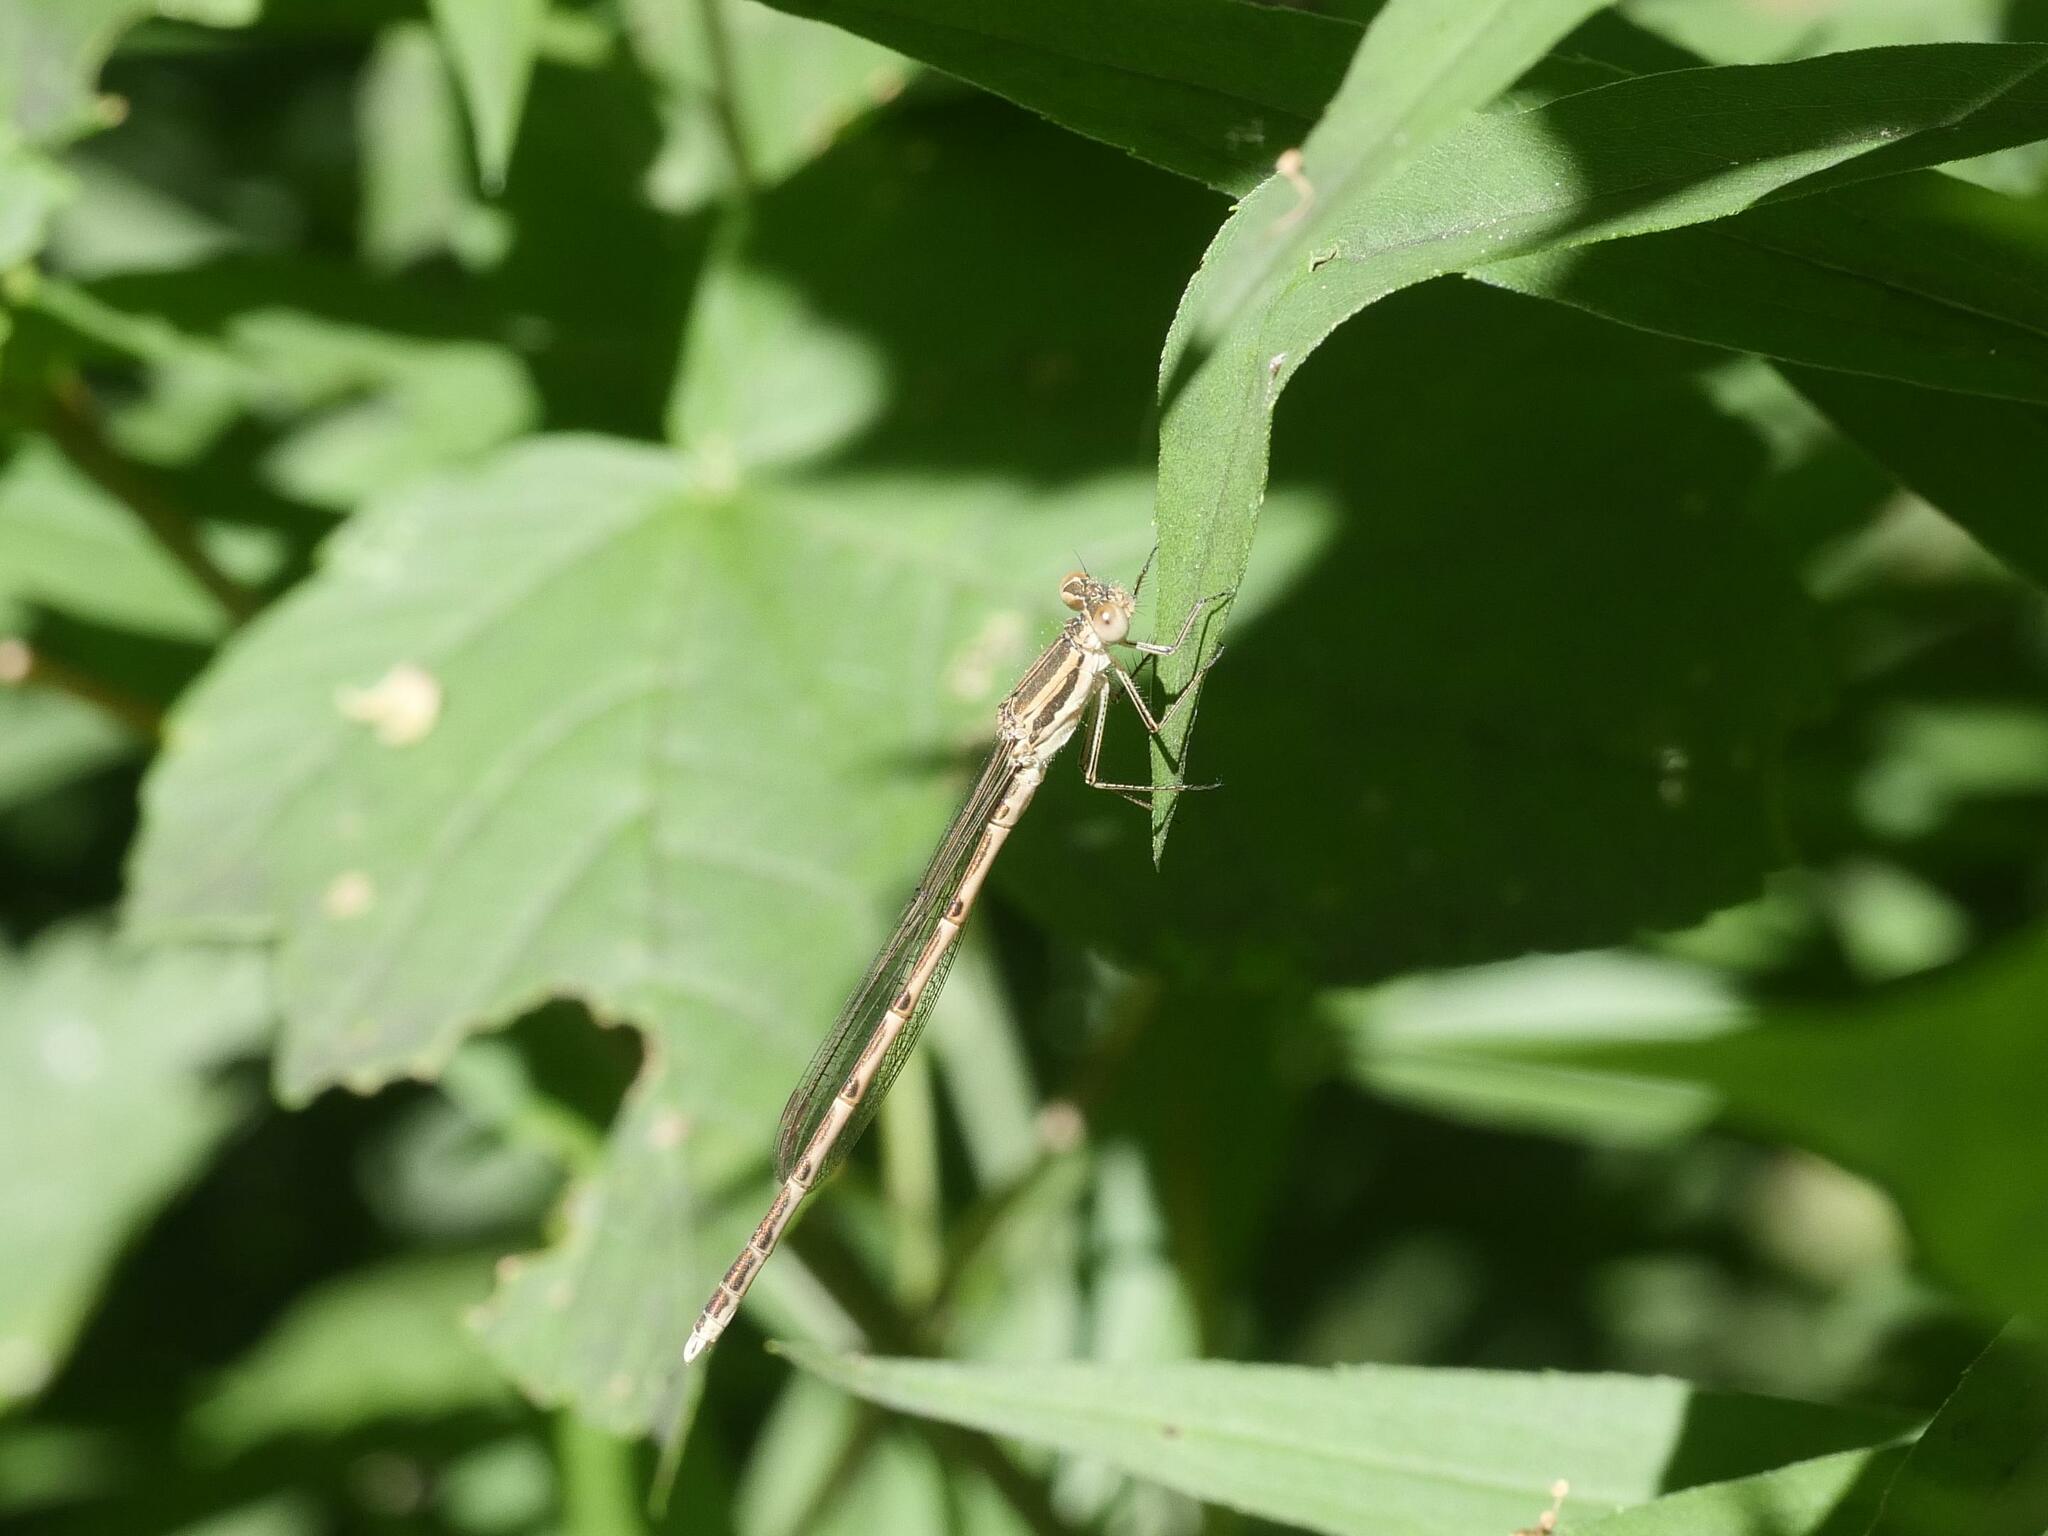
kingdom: Animalia
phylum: Arthropoda
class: Insecta
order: Odonata
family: Lestidae
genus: Sympecma
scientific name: Sympecma fusca
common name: Common winter damsel
